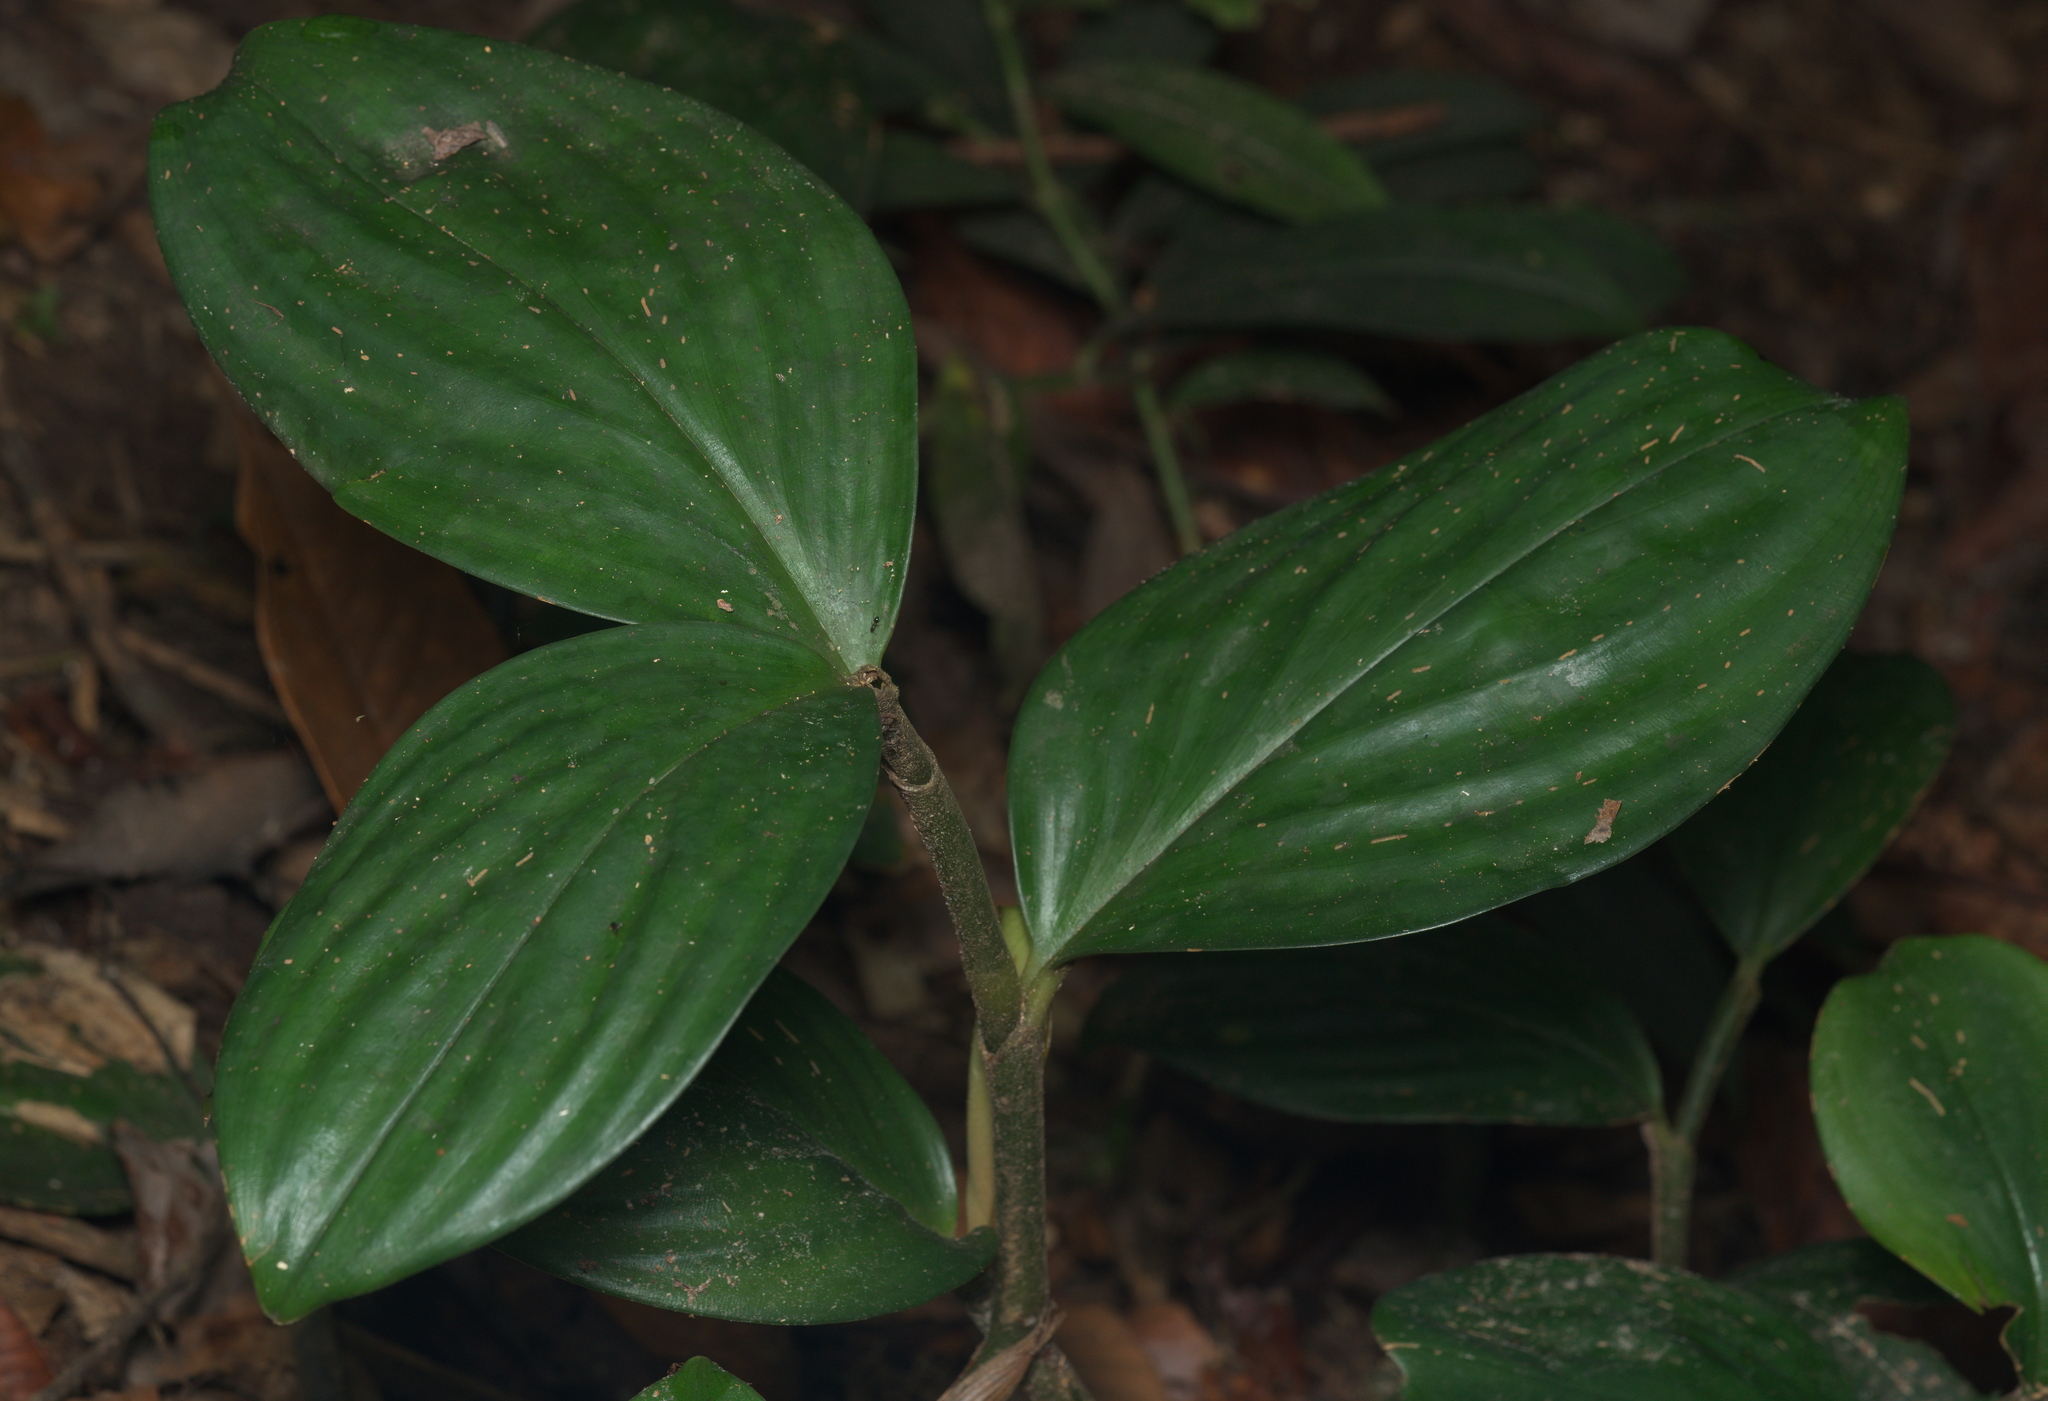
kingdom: Plantae
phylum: Tracheophyta
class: Liliopsida
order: Zingiberales
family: Costaceae
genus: Parahellenia
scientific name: Parahellenia
